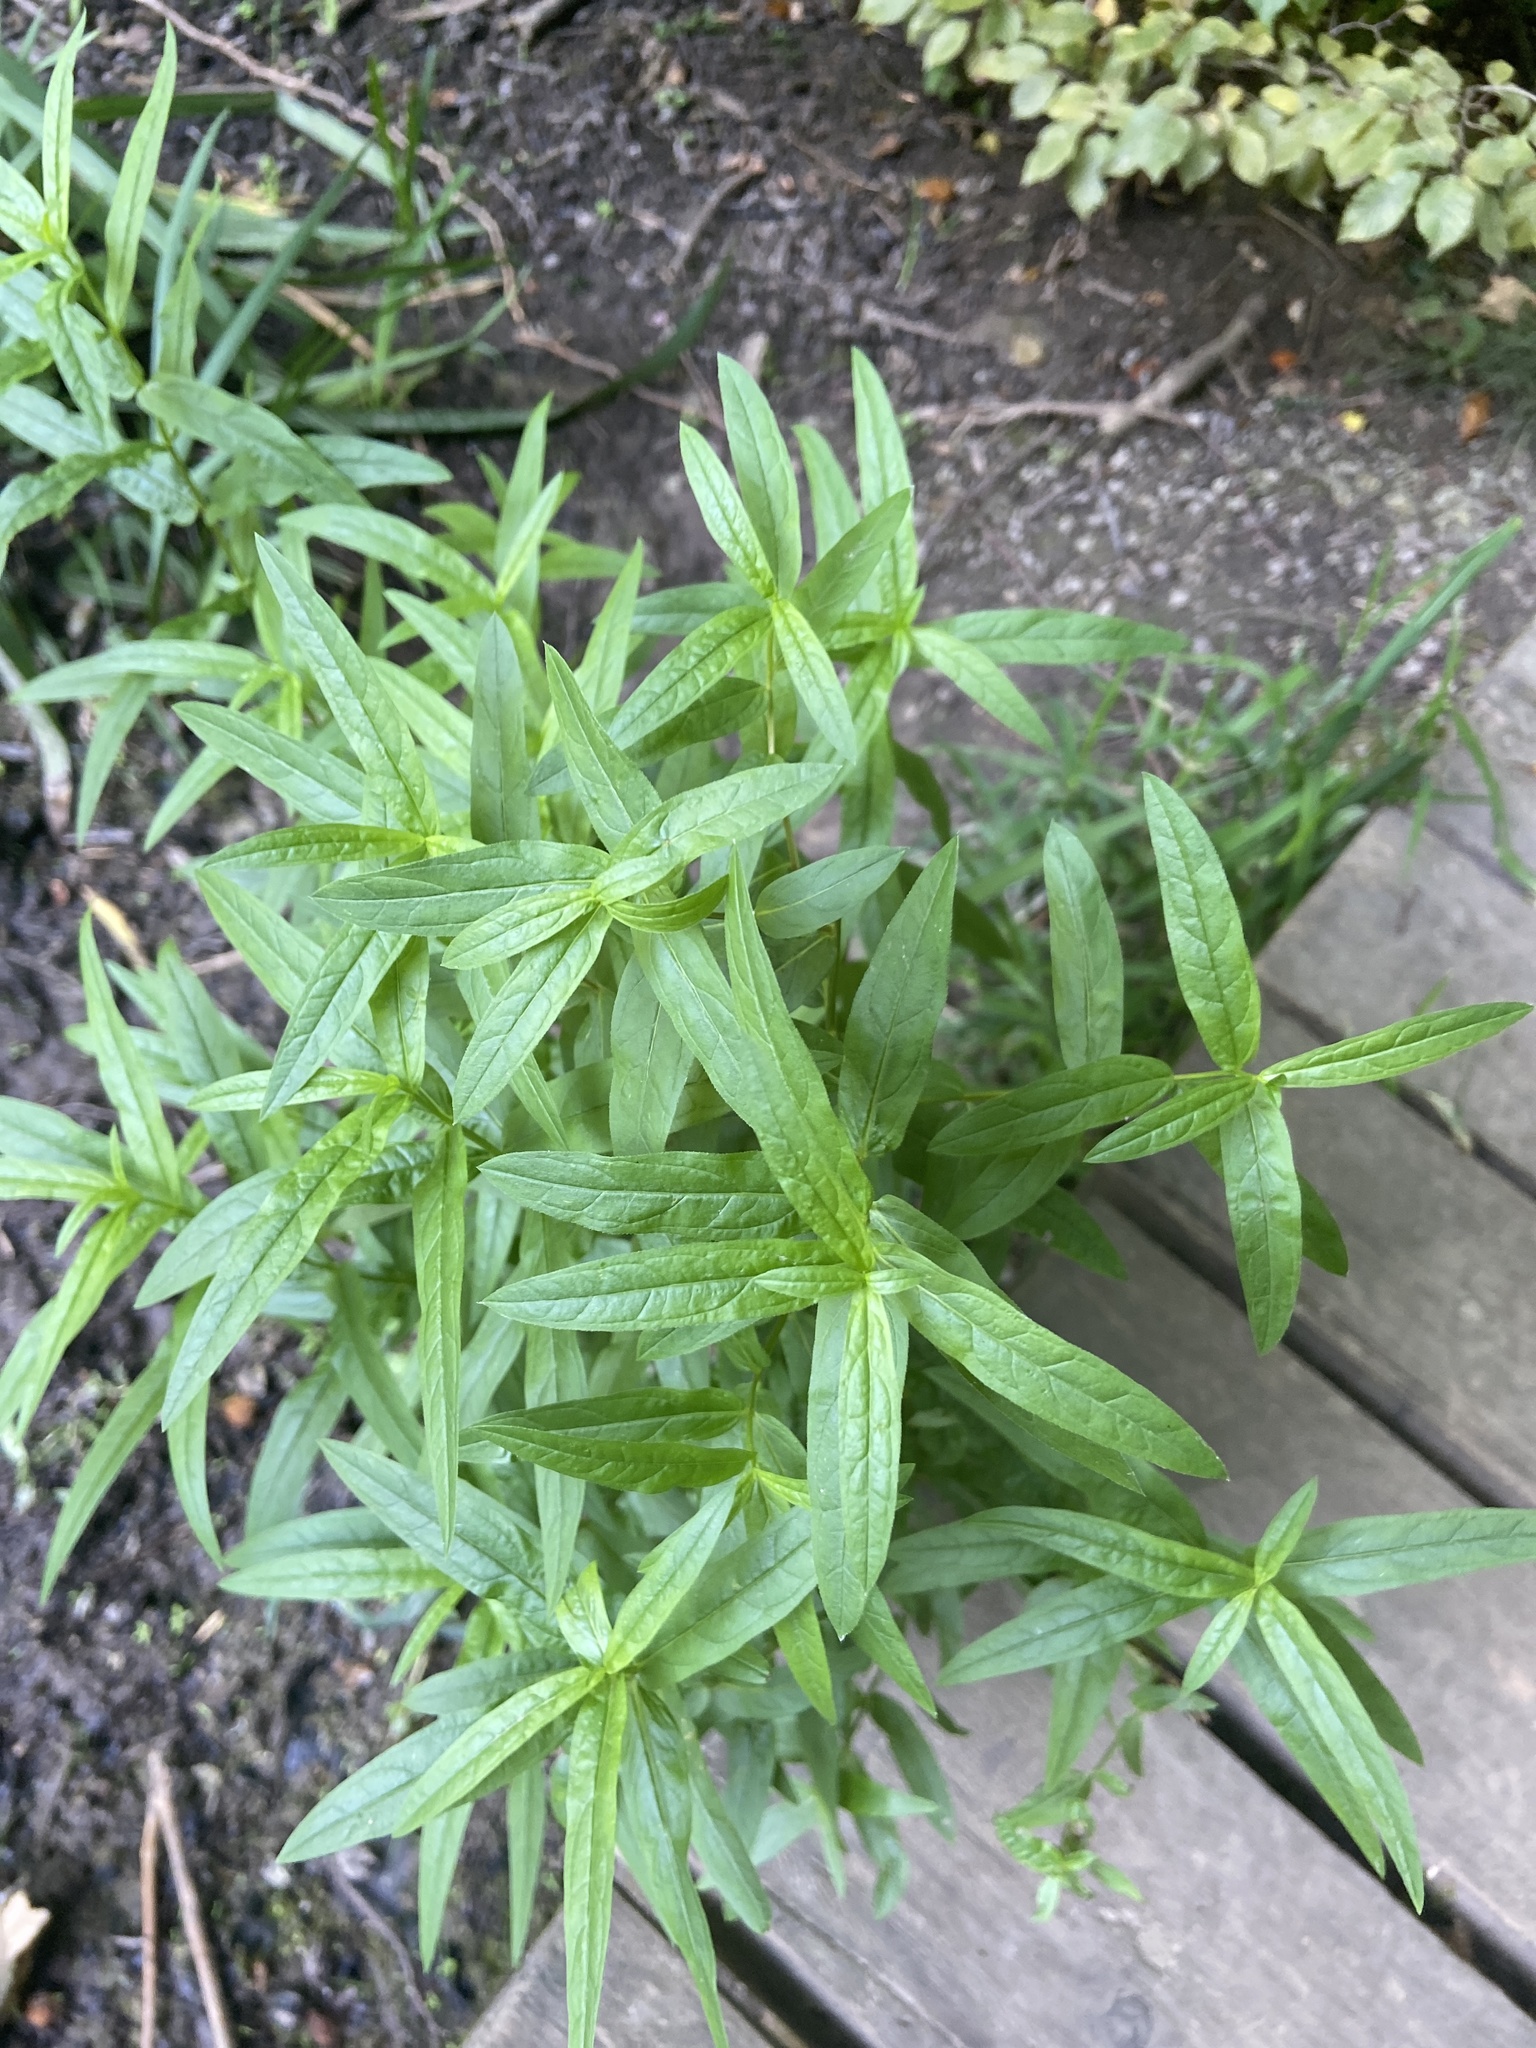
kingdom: Plantae
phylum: Tracheophyta
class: Magnoliopsida
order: Gentianales
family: Rubiaceae
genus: Galium
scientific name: Galium boreale
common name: Northern bedstraw
